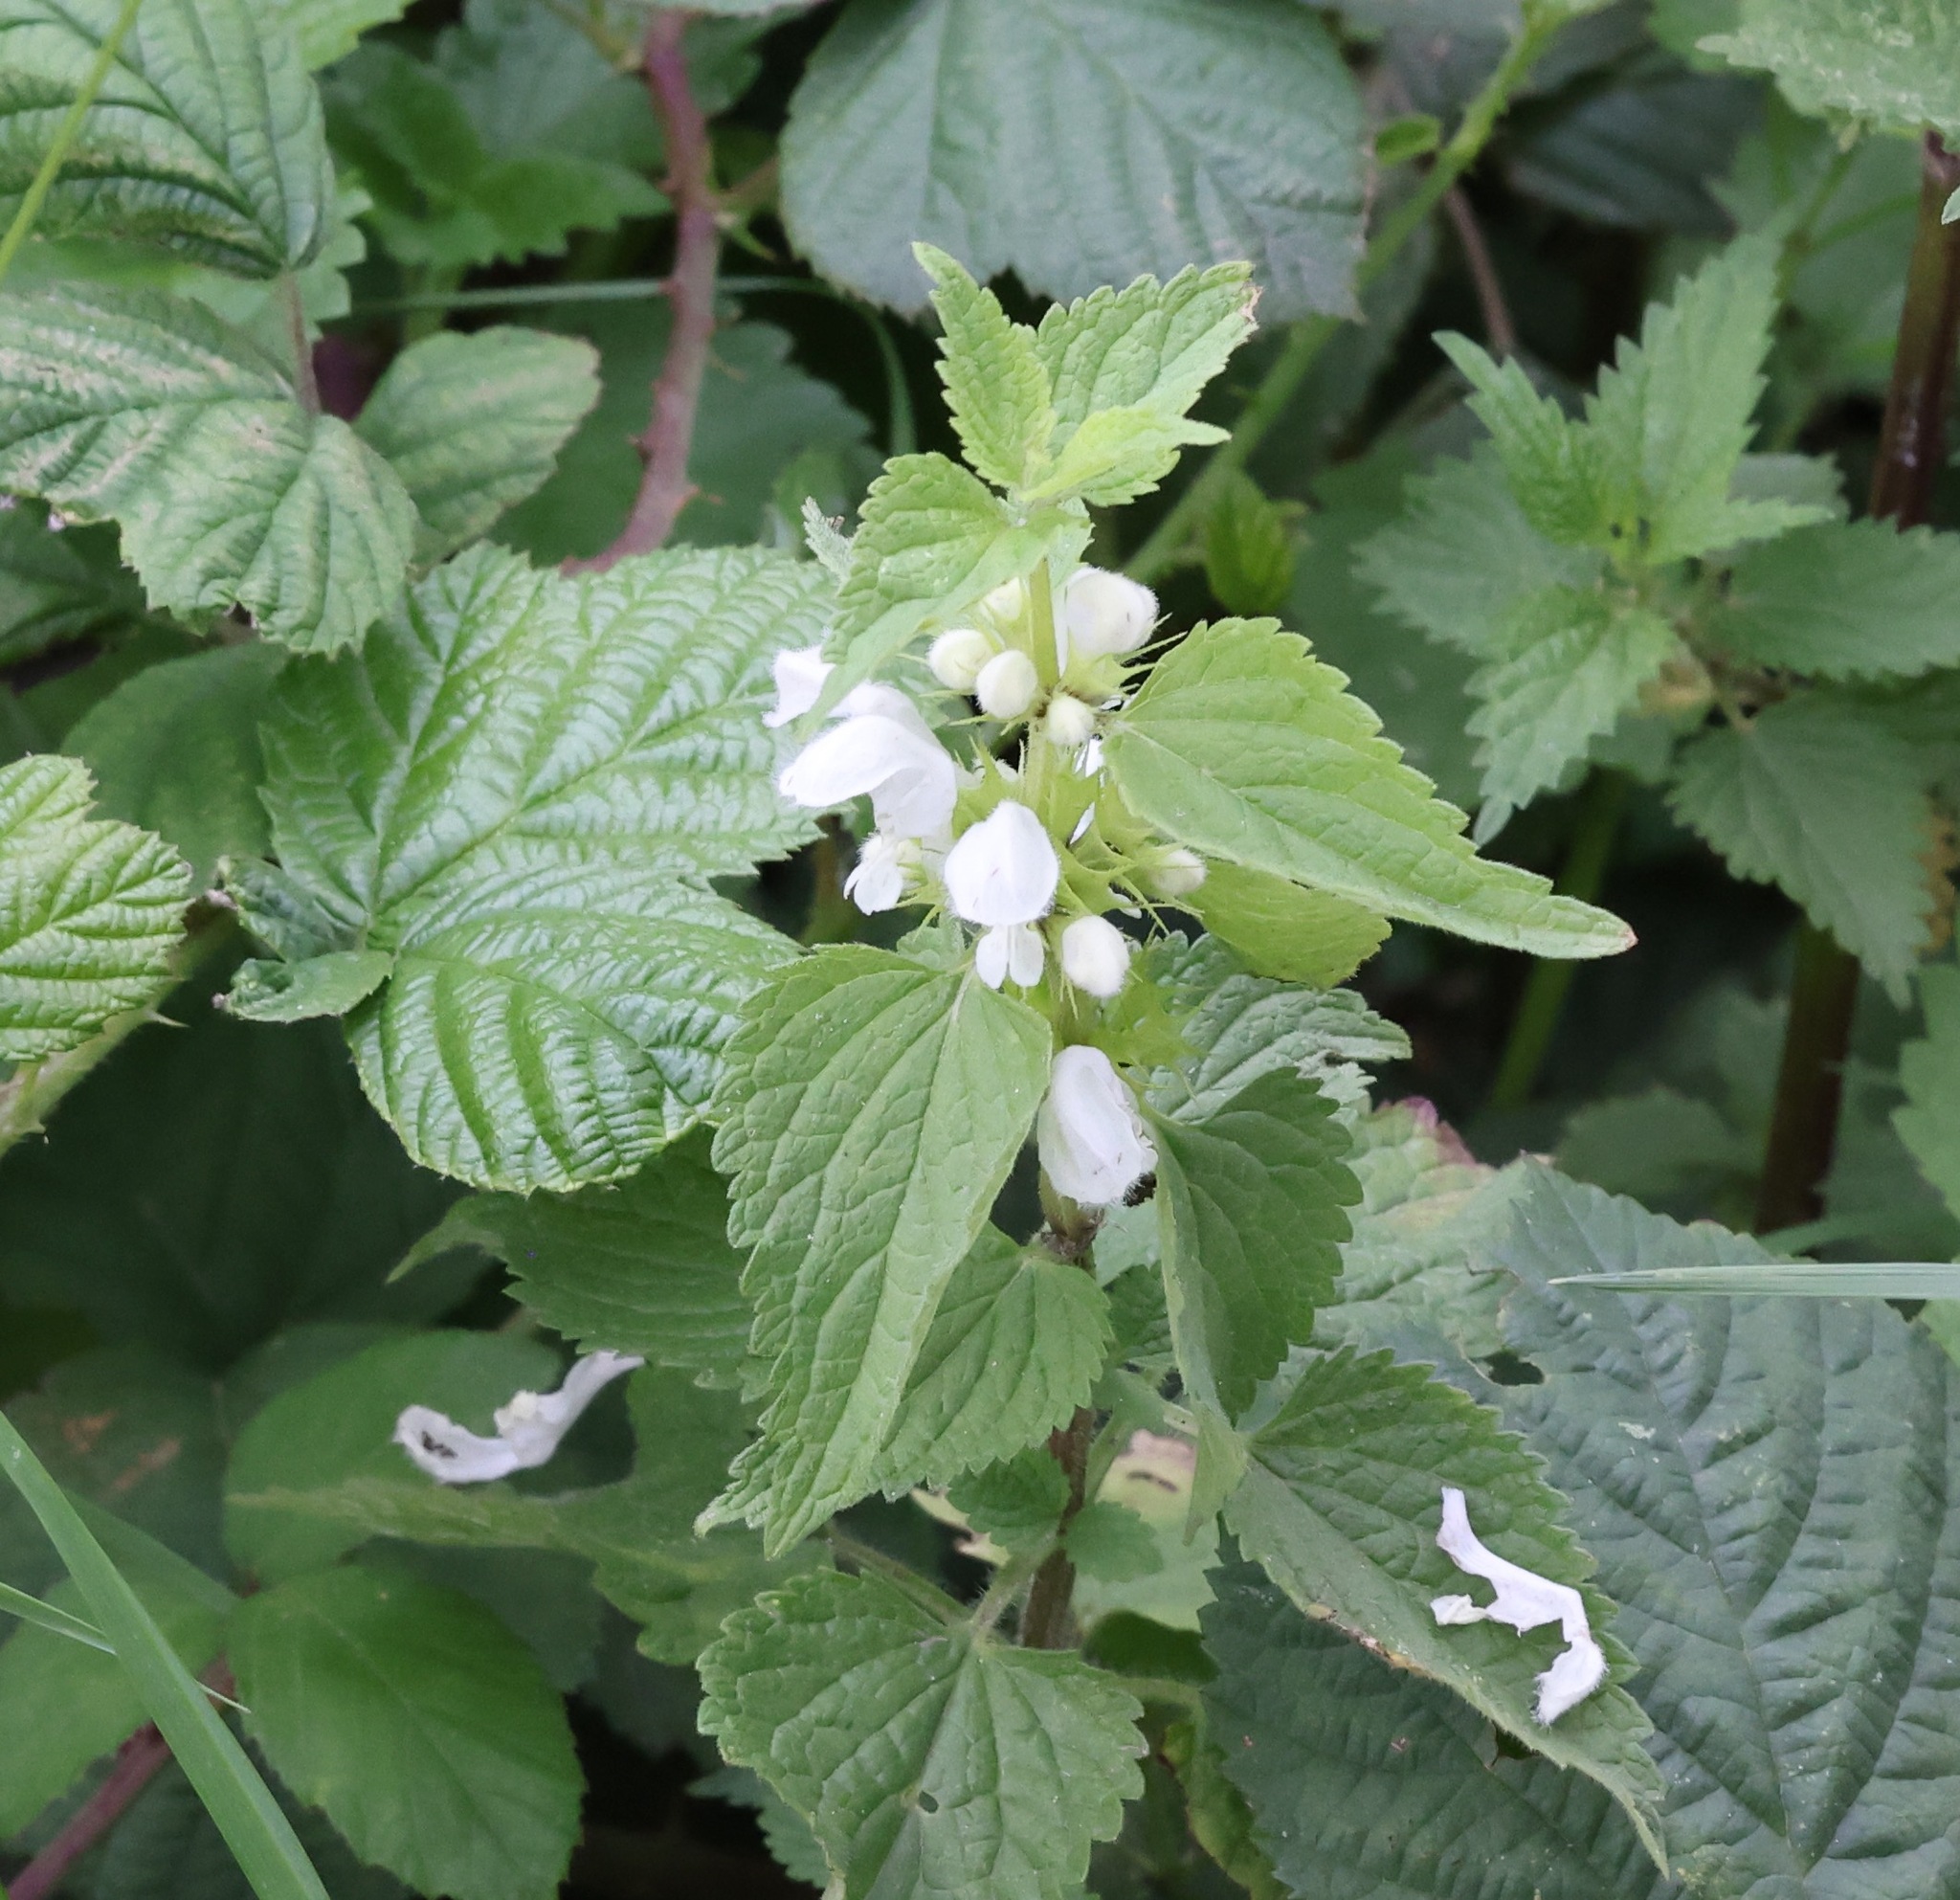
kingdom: Plantae
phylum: Tracheophyta
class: Magnoliopsida
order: Lamiales
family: Lamiaceae
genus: Lamium
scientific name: Lamium album
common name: White dead-nettle
